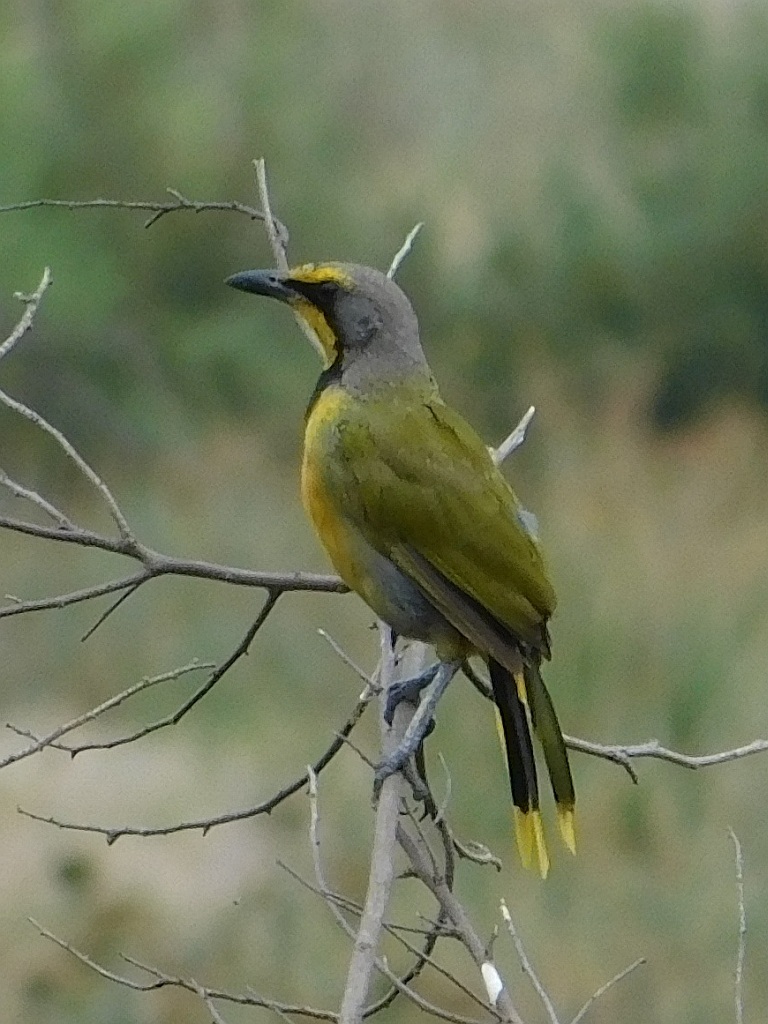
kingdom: Animalia
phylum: Chordata
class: Aves
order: Passeriformes
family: Malaconotidae
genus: Telophorus
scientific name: Telophorus zeylonus
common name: Bokmakierie
